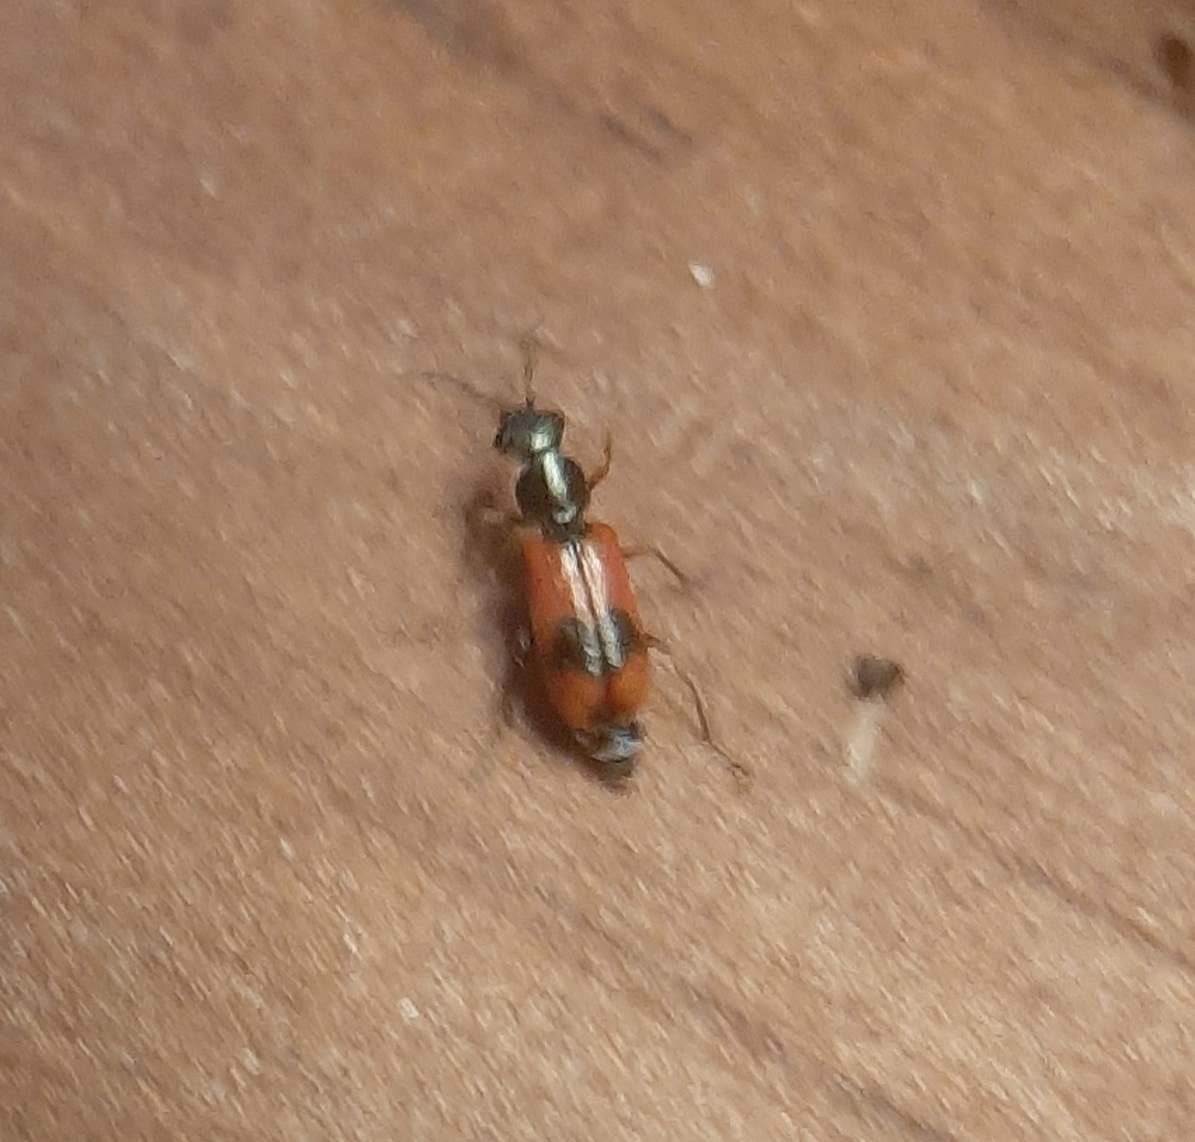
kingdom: Animalia
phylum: Arthropoda
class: Insecta
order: Coleoptera
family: Melyridae
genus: Anthocomus
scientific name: Anthocomus equestris
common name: Black-banded soft-winged flower beetle
